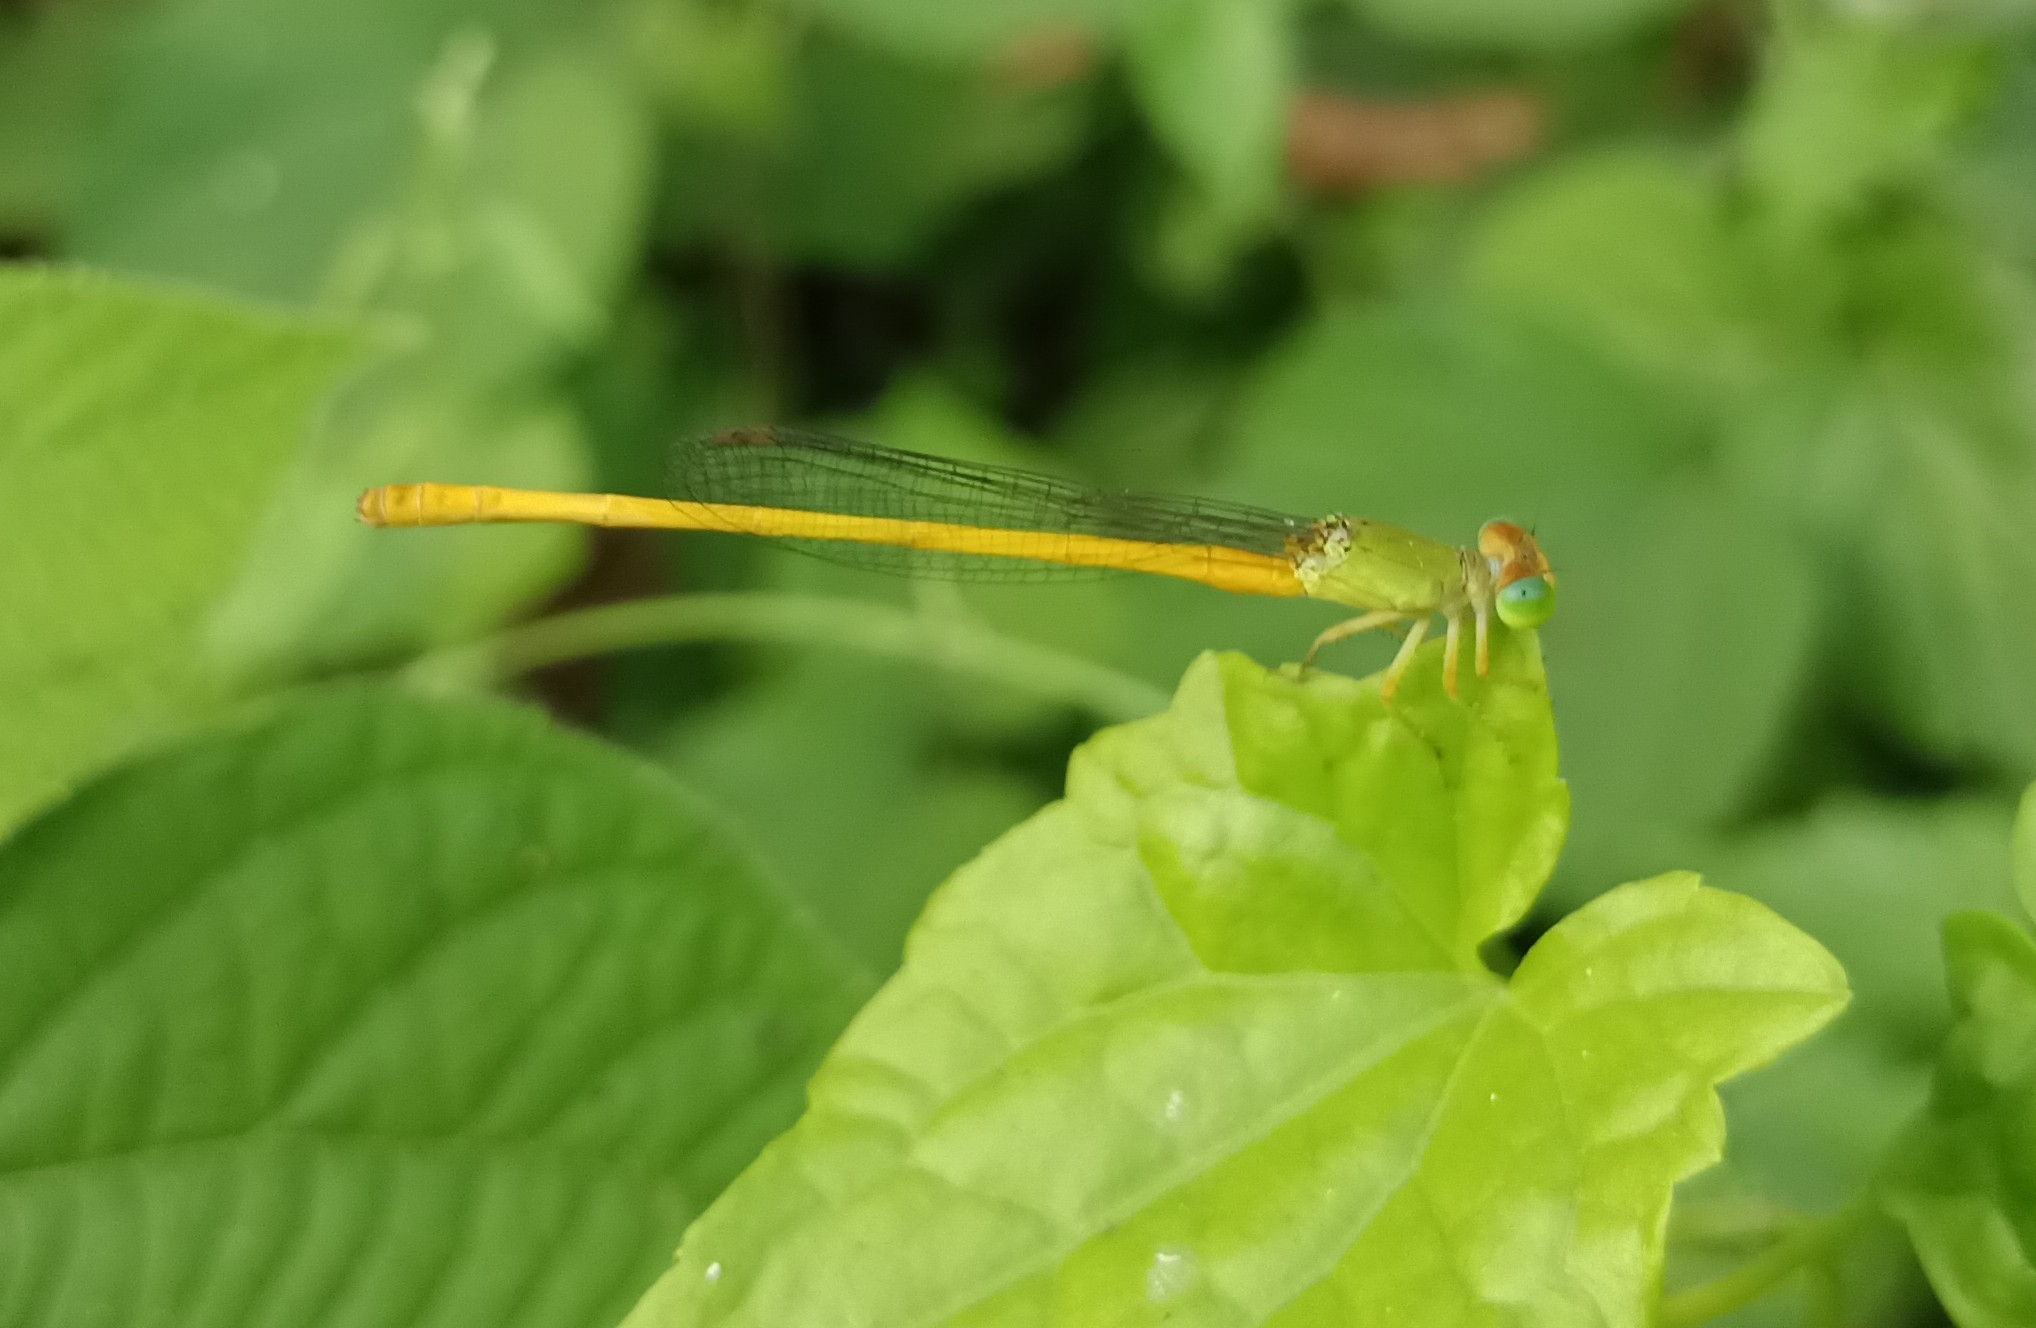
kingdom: Animalia
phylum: Arthropoda
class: Insecta
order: Odonata
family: Coenagrionidae
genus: Ceriagrion
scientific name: Ceriagrion coromandelianum
